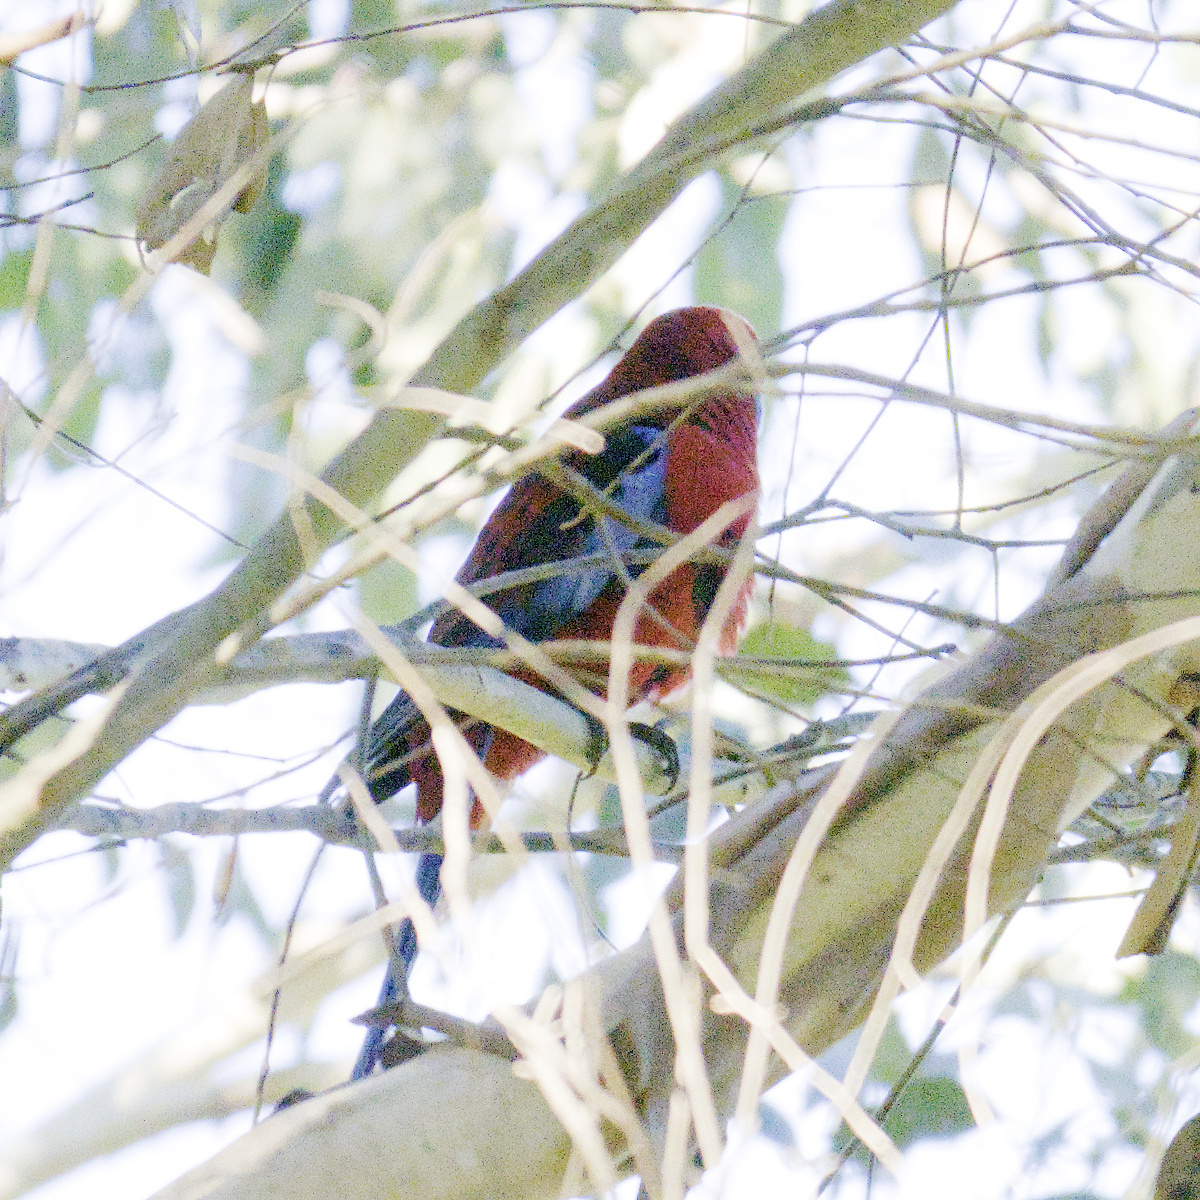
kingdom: Animalia
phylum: Chordata
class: Aves
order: Psittaciformes
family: Psittacidae
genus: Platycercus
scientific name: Platycercus elegans
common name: Crimson rosella
